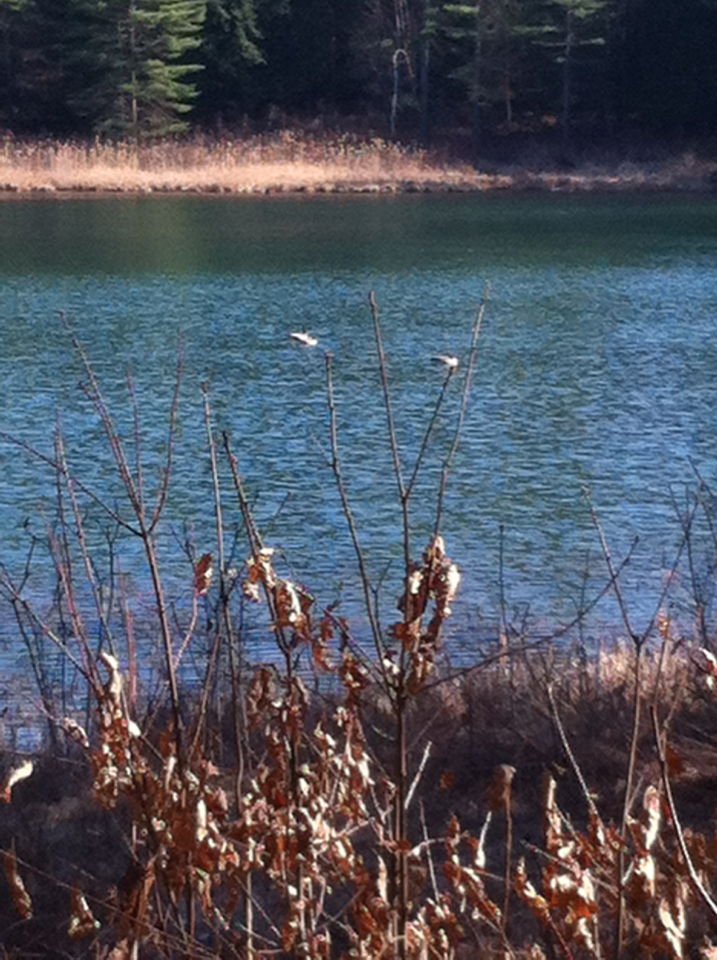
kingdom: Animalia
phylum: Chordata
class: Aves
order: Anseriformes
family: Anatidae
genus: Branta
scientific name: Branta canadensis
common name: Canada goose
